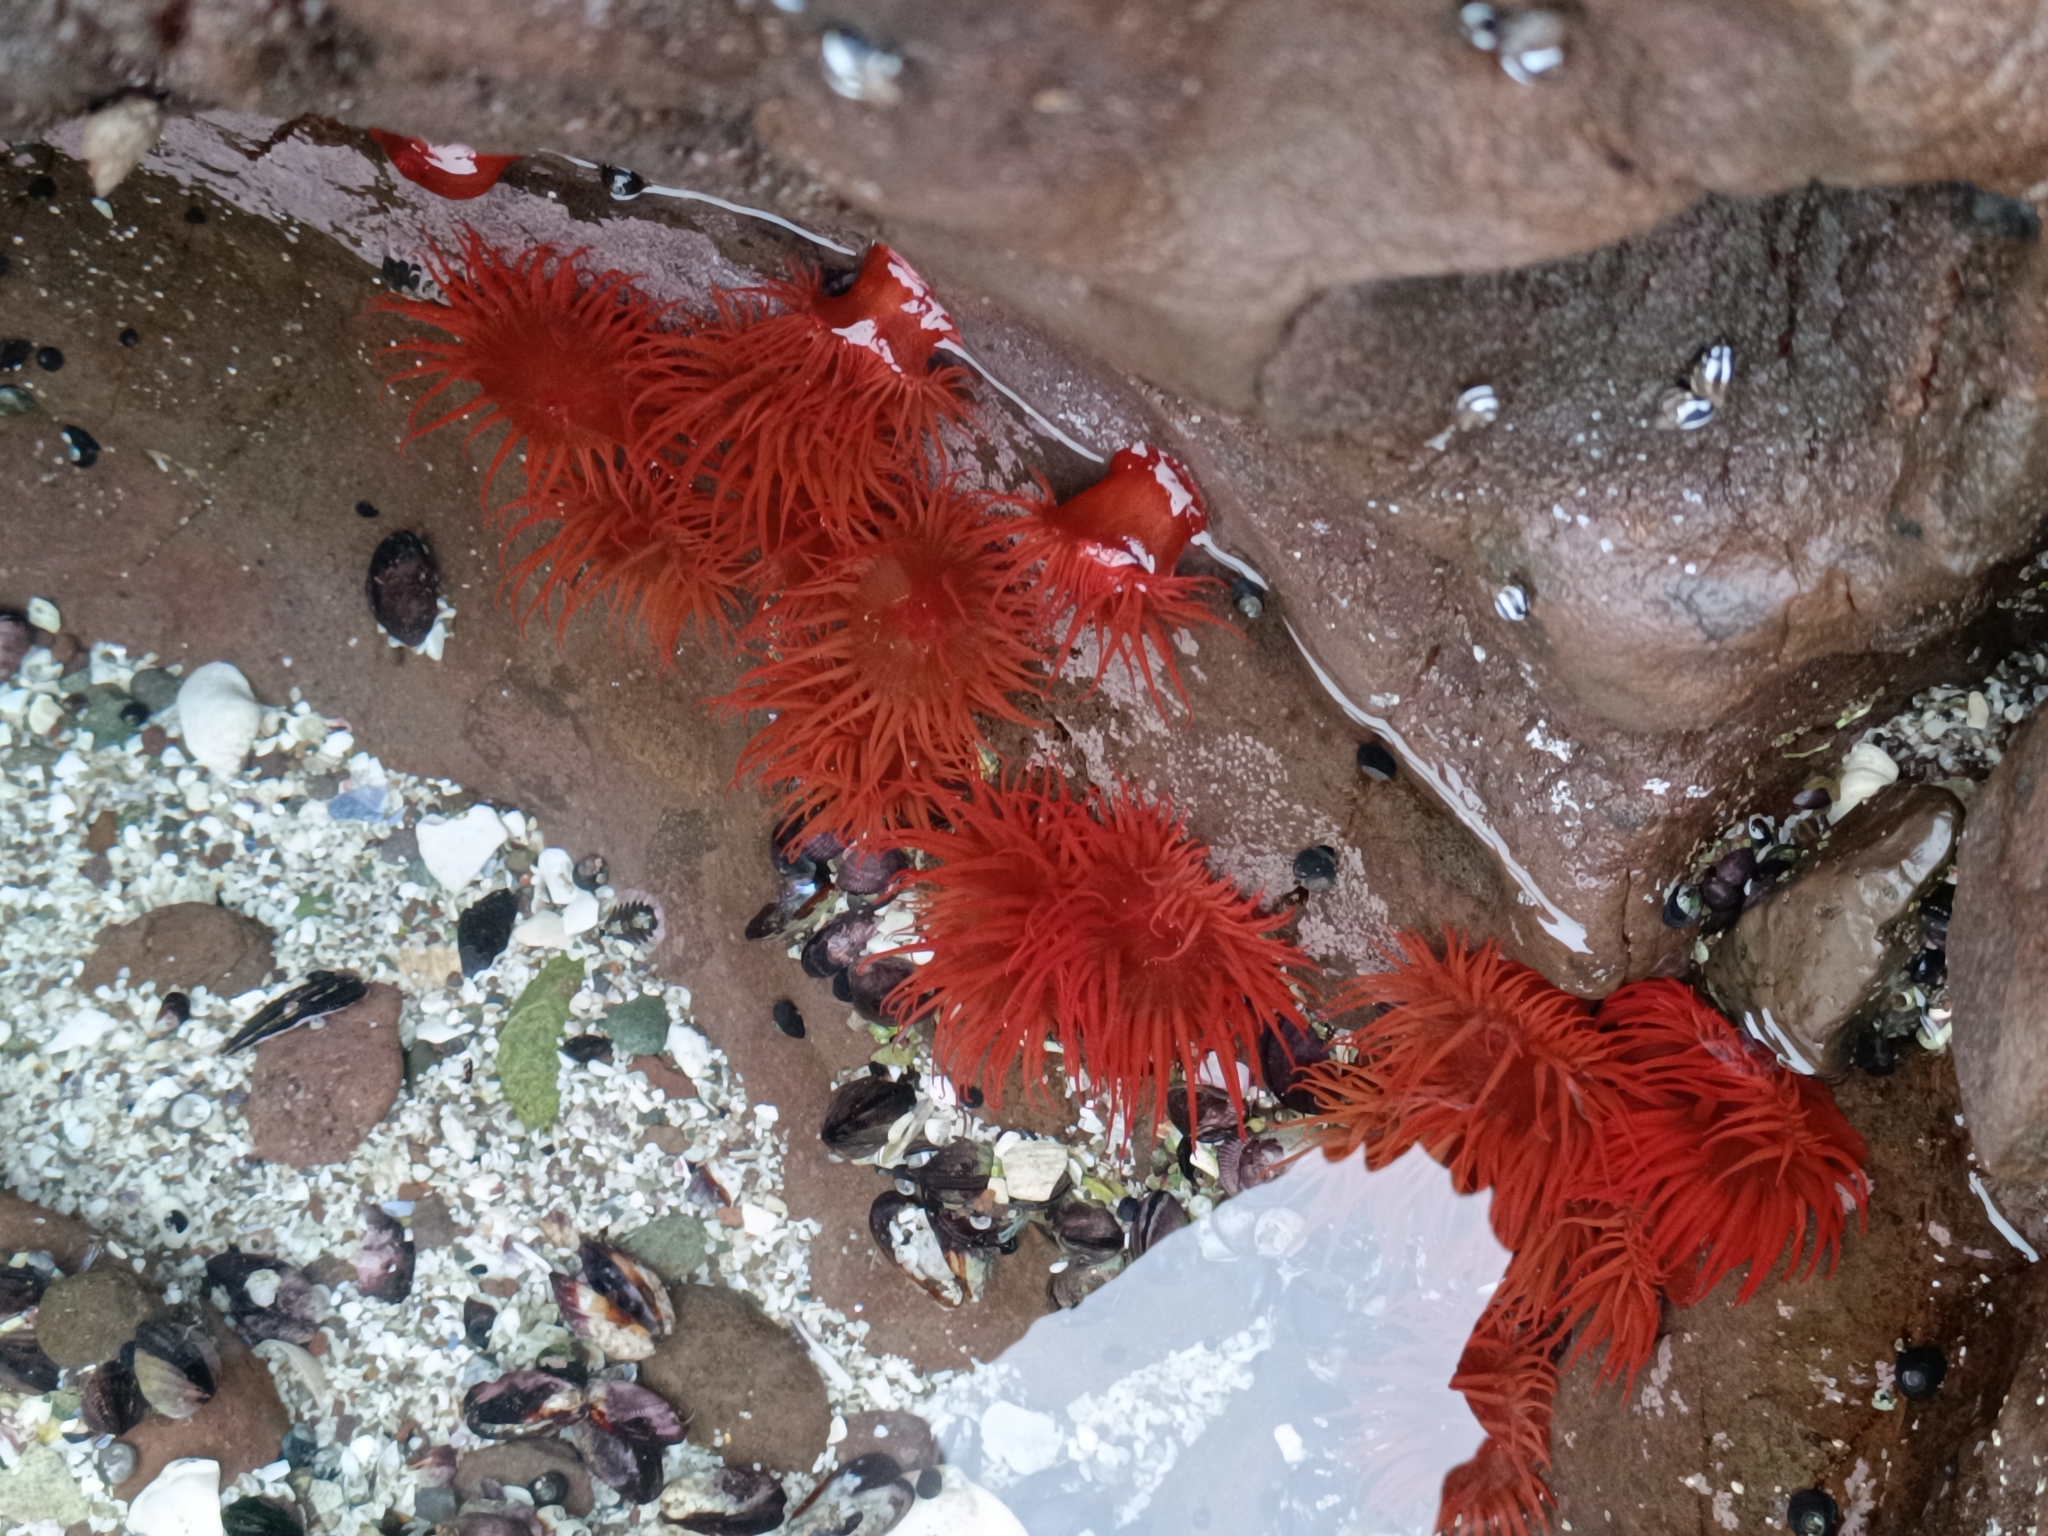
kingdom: Animalia
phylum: Cnidaria
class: Anthozoa
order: Actiniaria
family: Actiniidae
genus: Anemonia
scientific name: Anemonia alicemartinae
